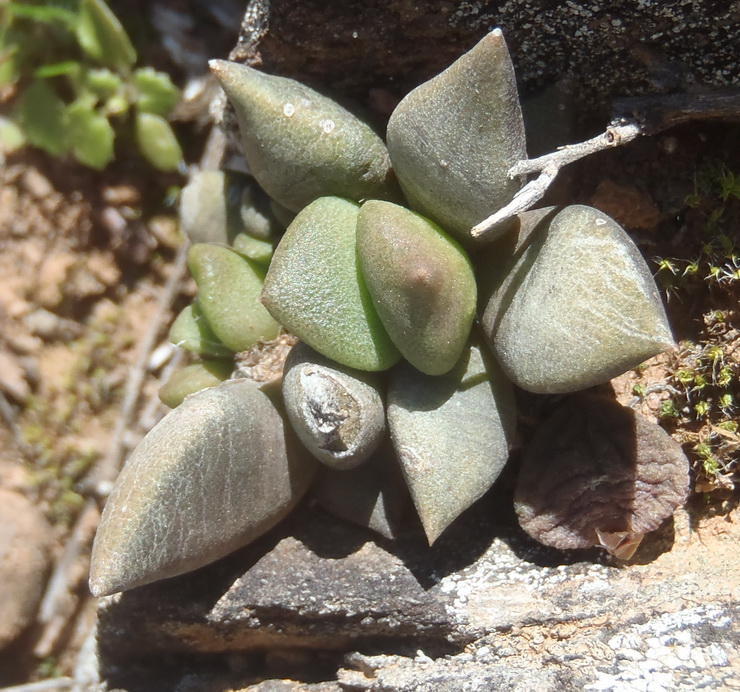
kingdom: Plantae
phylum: Tracheophyta
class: Magnoliopsida
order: Caryophyllales
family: Anacampserotaceae
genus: Anacampseros
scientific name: Anacampseros telephiastrum
